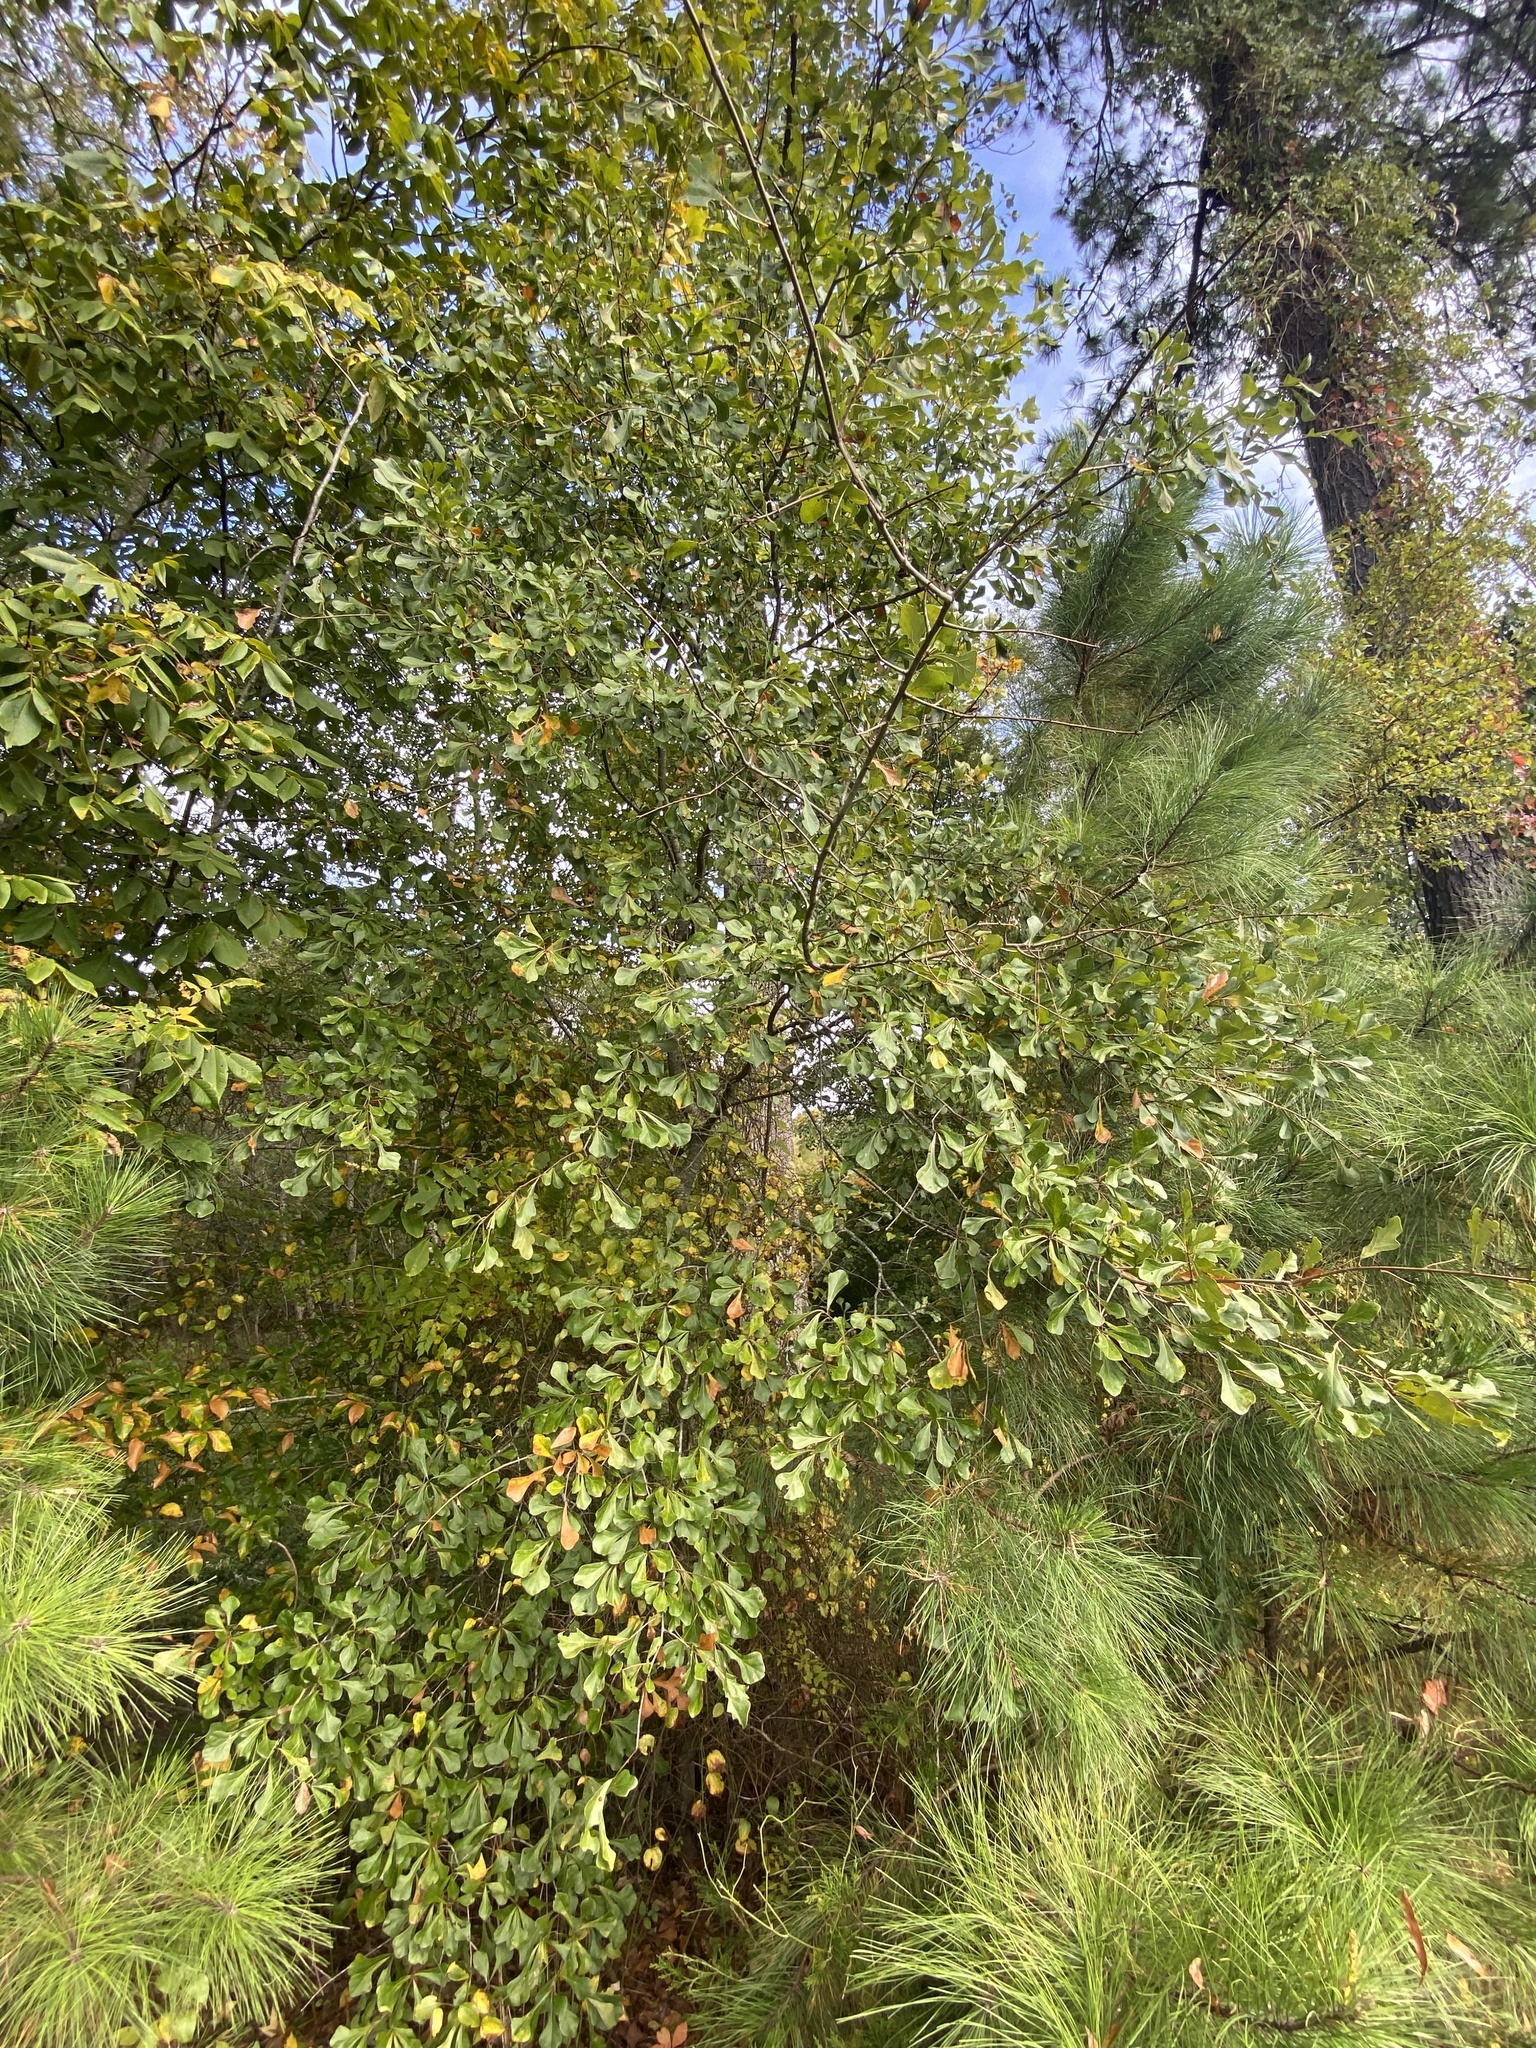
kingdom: Plantae
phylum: Tracheophyta
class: Magnoliopsida
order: Fagales
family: Fagaceae
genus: Quercus
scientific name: Quercus nigra
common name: Water oak
